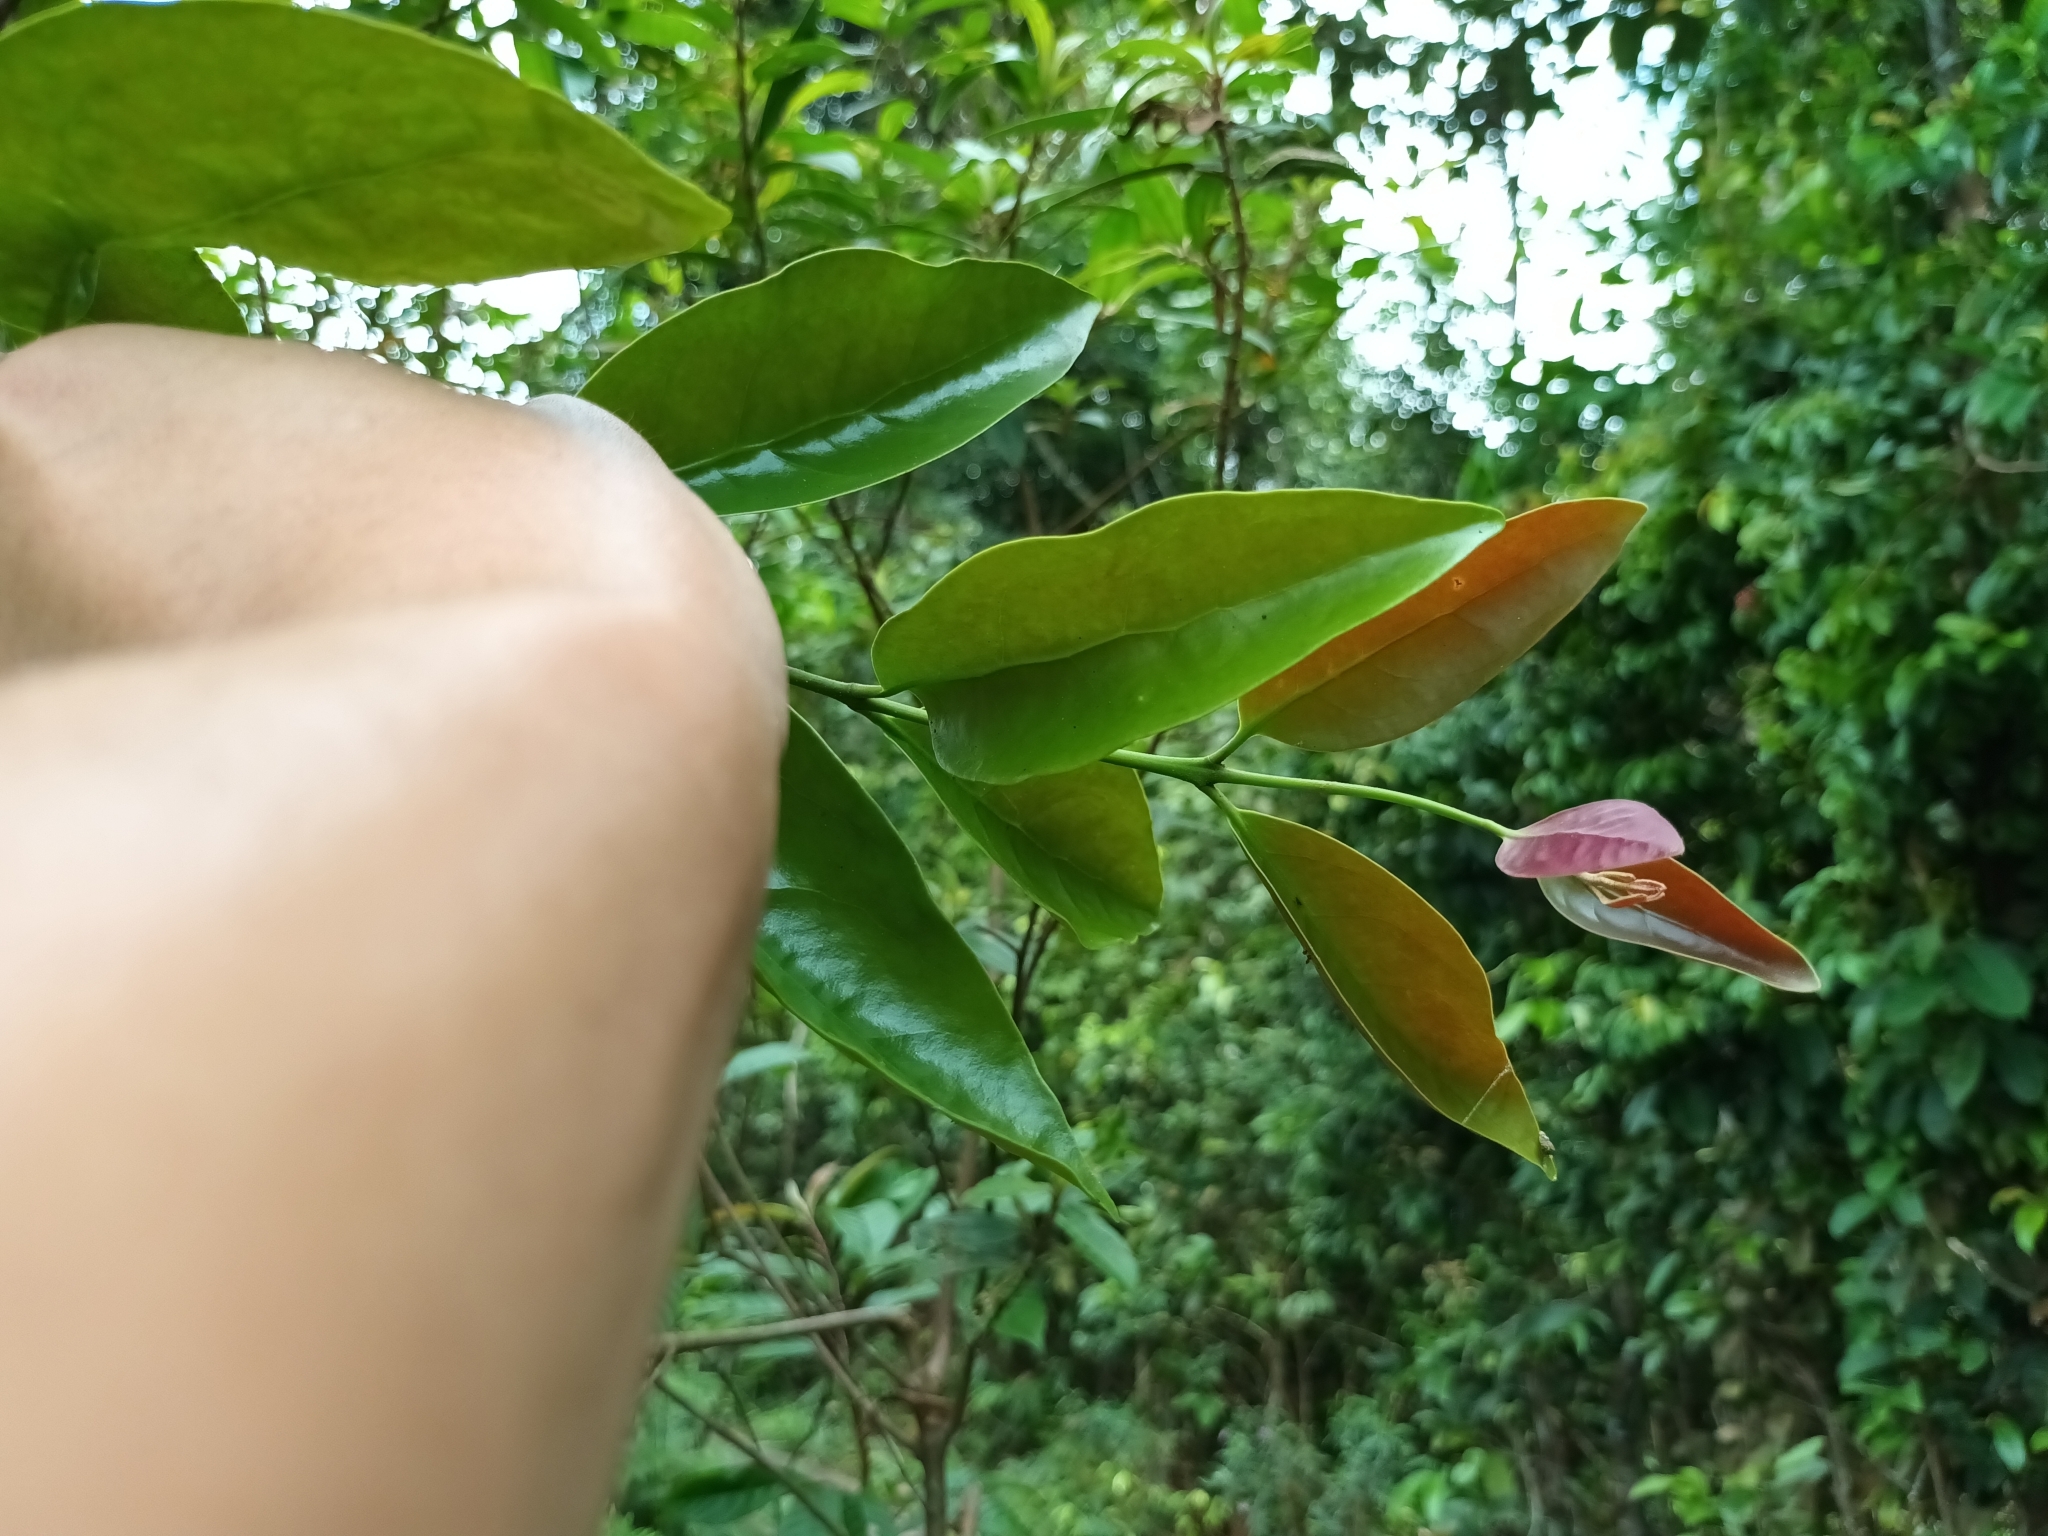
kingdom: Plantae
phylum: Tracheophyta
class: Magnoliopsida
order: Santalales
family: Loranthaceae
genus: Dendrophthoe
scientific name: Dendrophthoe pentandra
